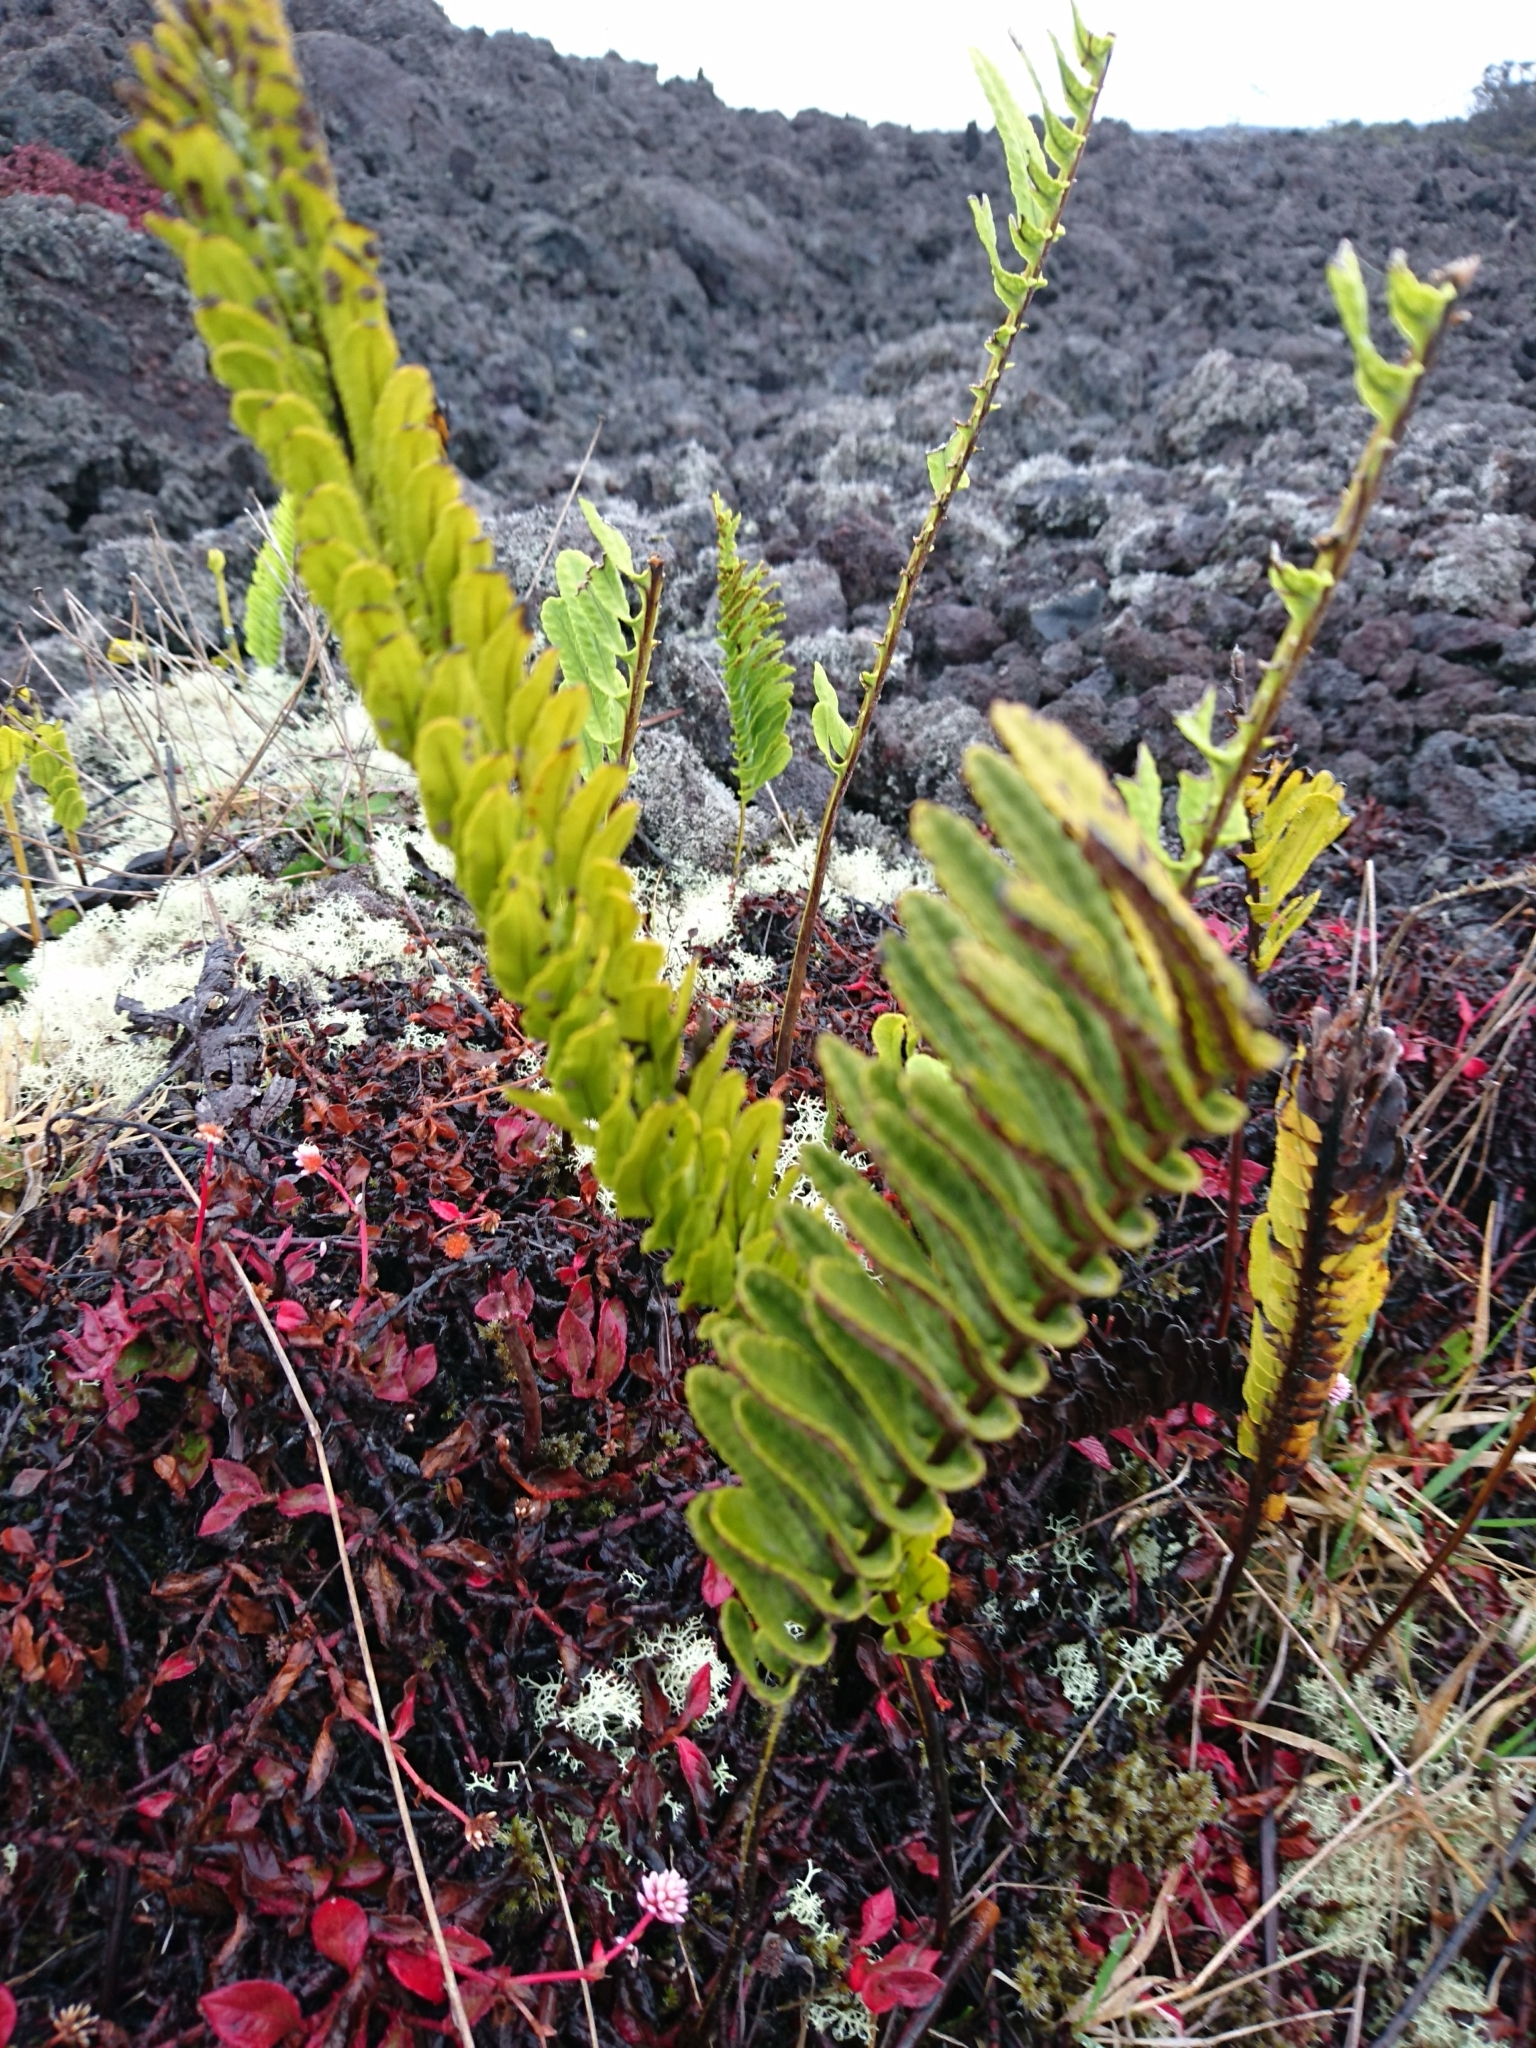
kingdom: Plantae
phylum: Tracheophyta
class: Polypodiopsida
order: Polypodiales
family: Polypodiaceae
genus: Polypodium
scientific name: Polypodium pellucidum
